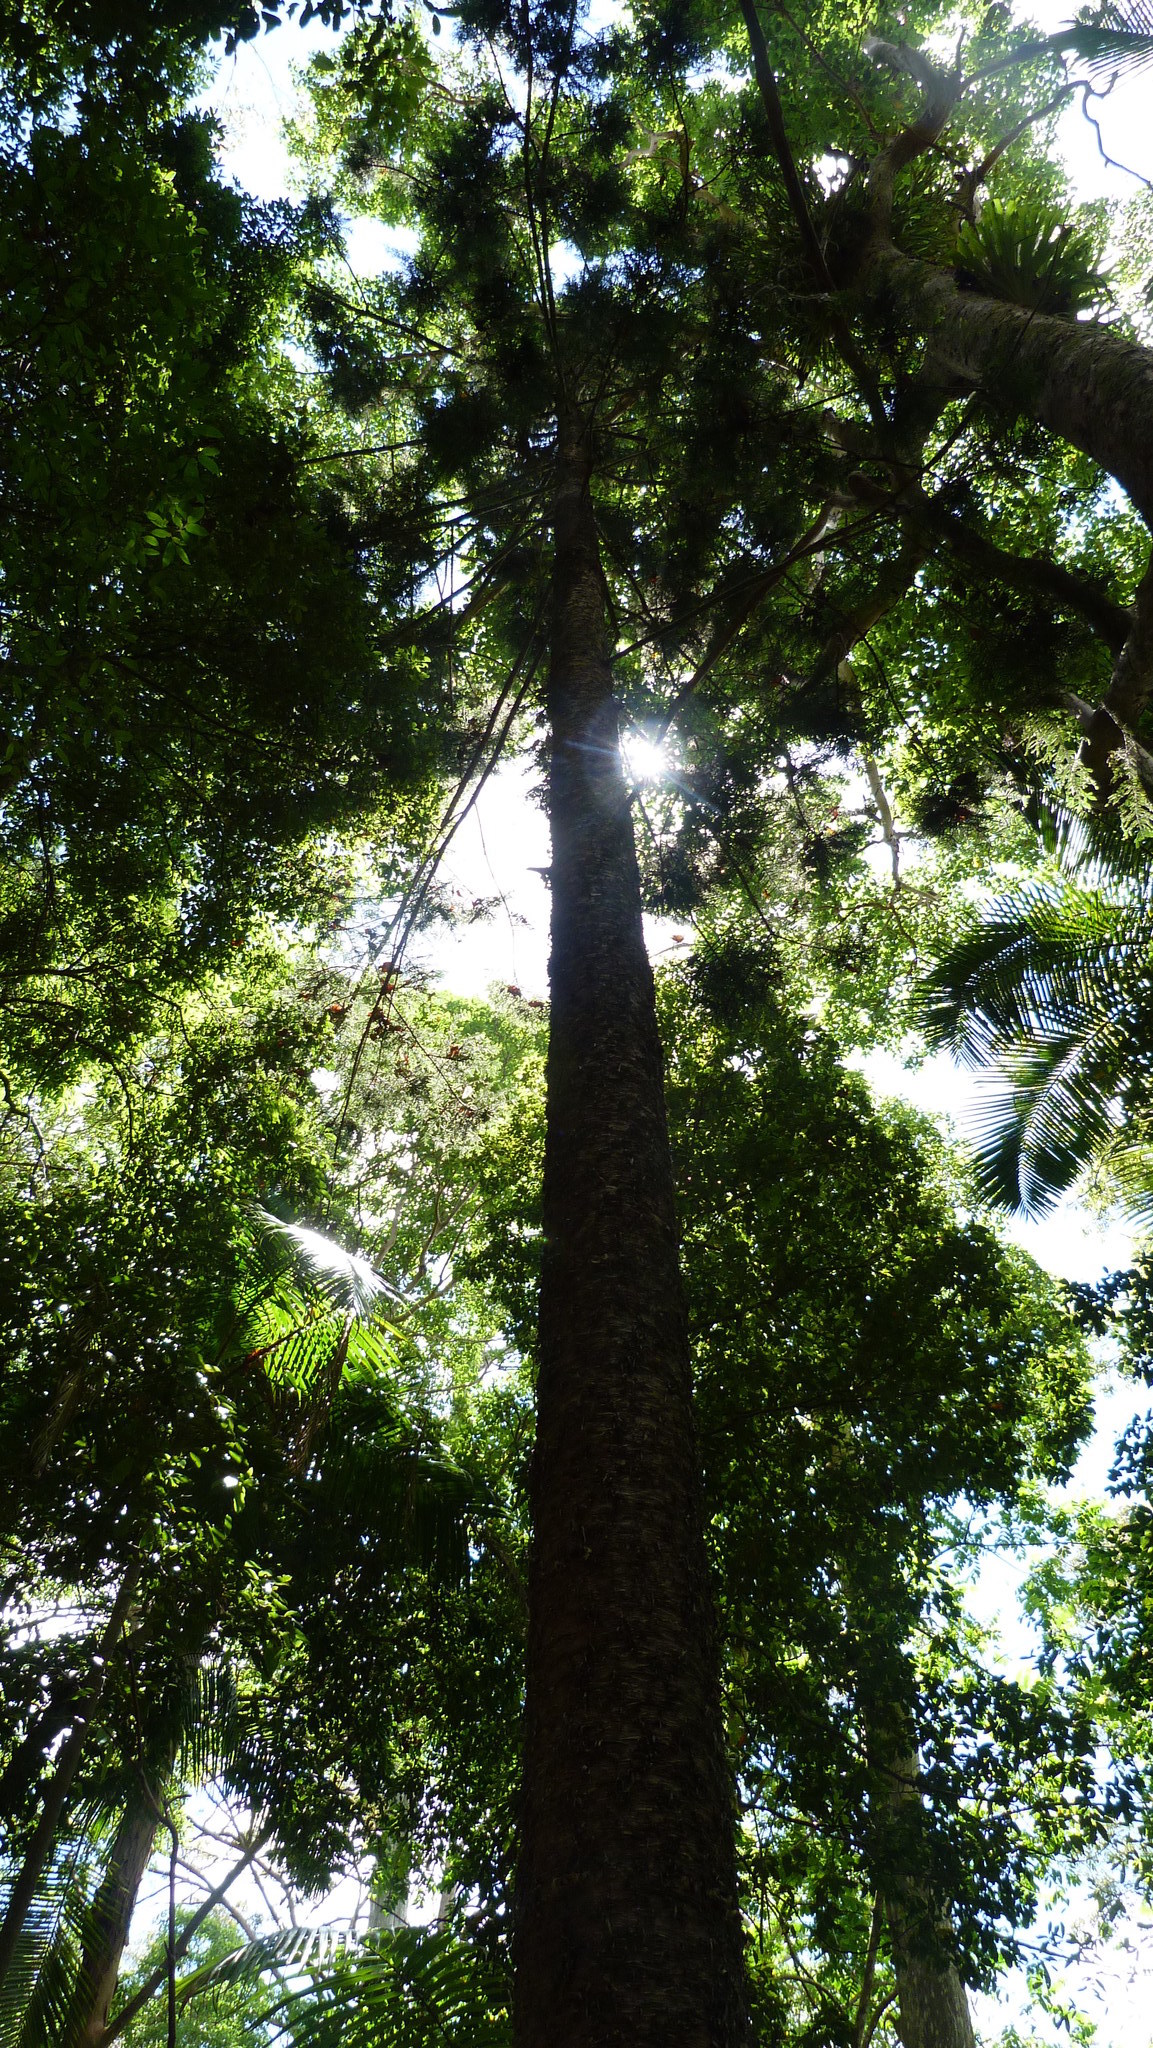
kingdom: Plantae
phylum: Tracheophyta
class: Pinopsida
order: Pinales
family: Araucariaceae
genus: Araucaria
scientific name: Araucaria bidwillii
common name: Moreton-bay-pine
